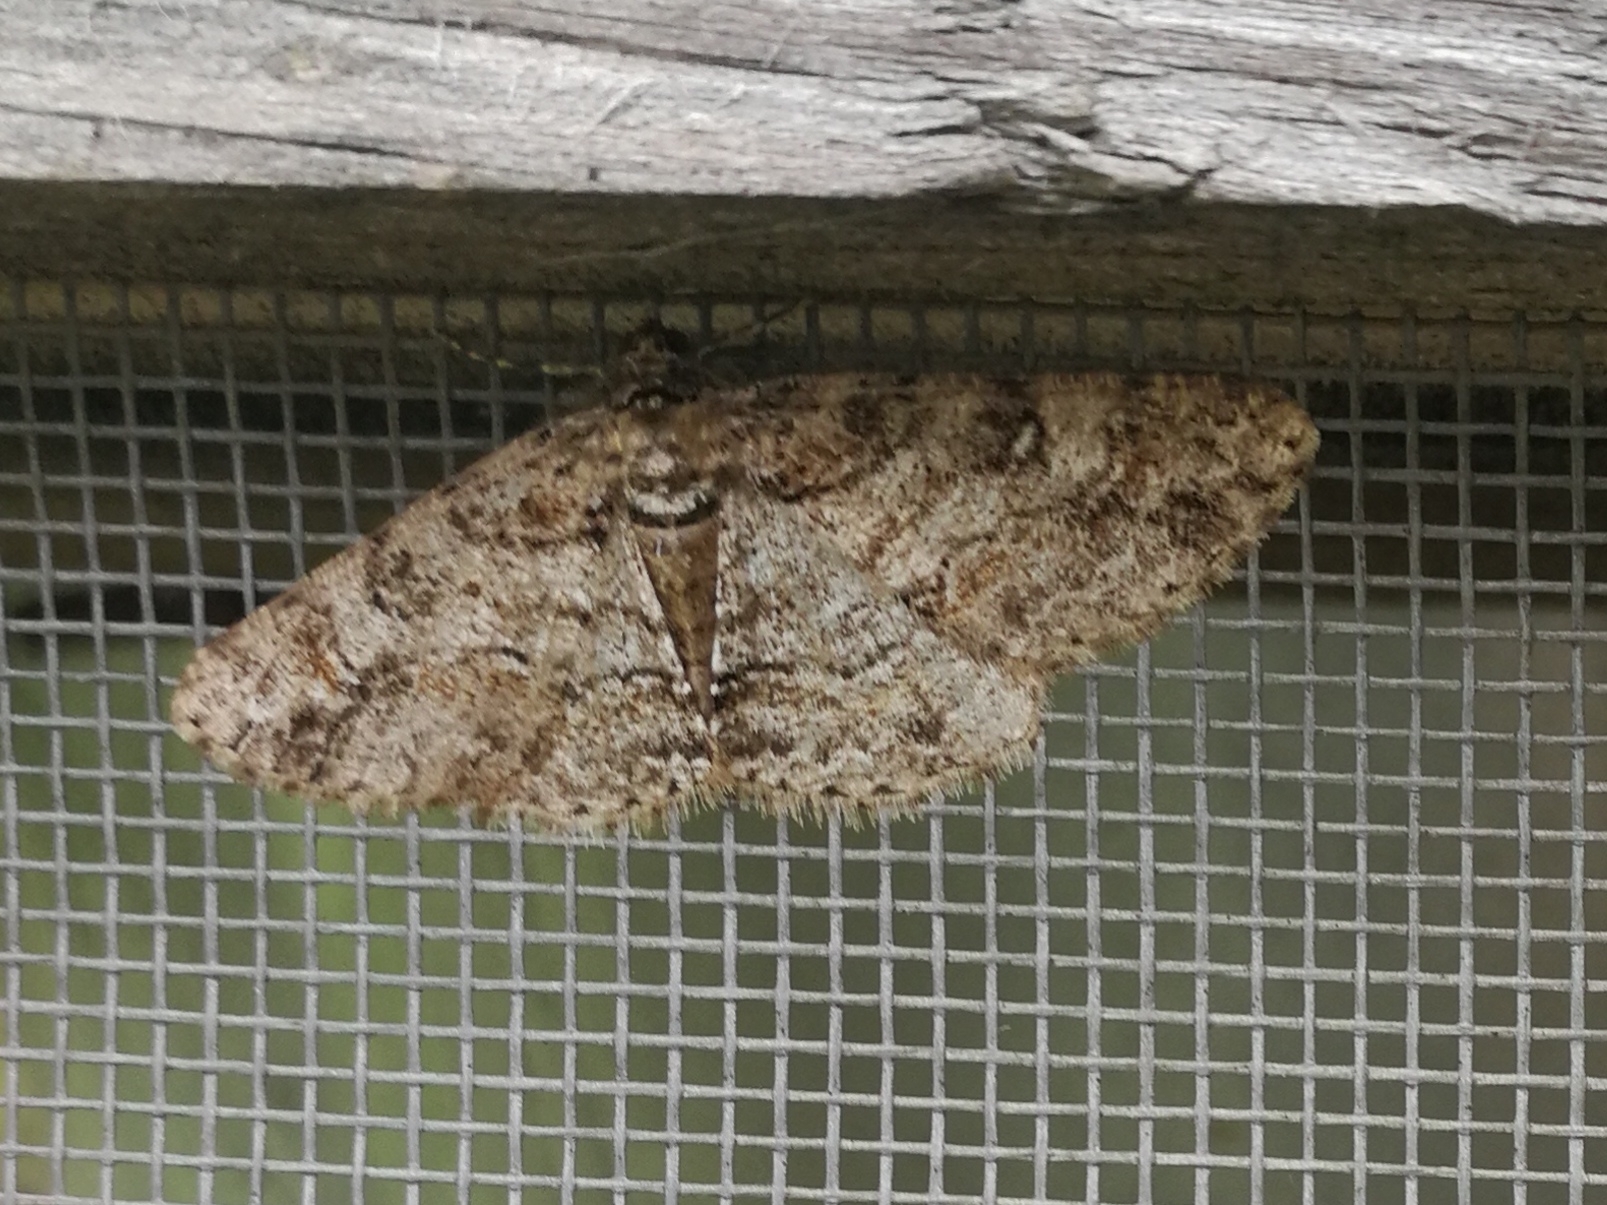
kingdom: Animalia
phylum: Arthropoda
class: Insecta
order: Lepidoptera
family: Geometridae
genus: Cleora
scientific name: Cleora cinctaria
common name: Ringed carpet
